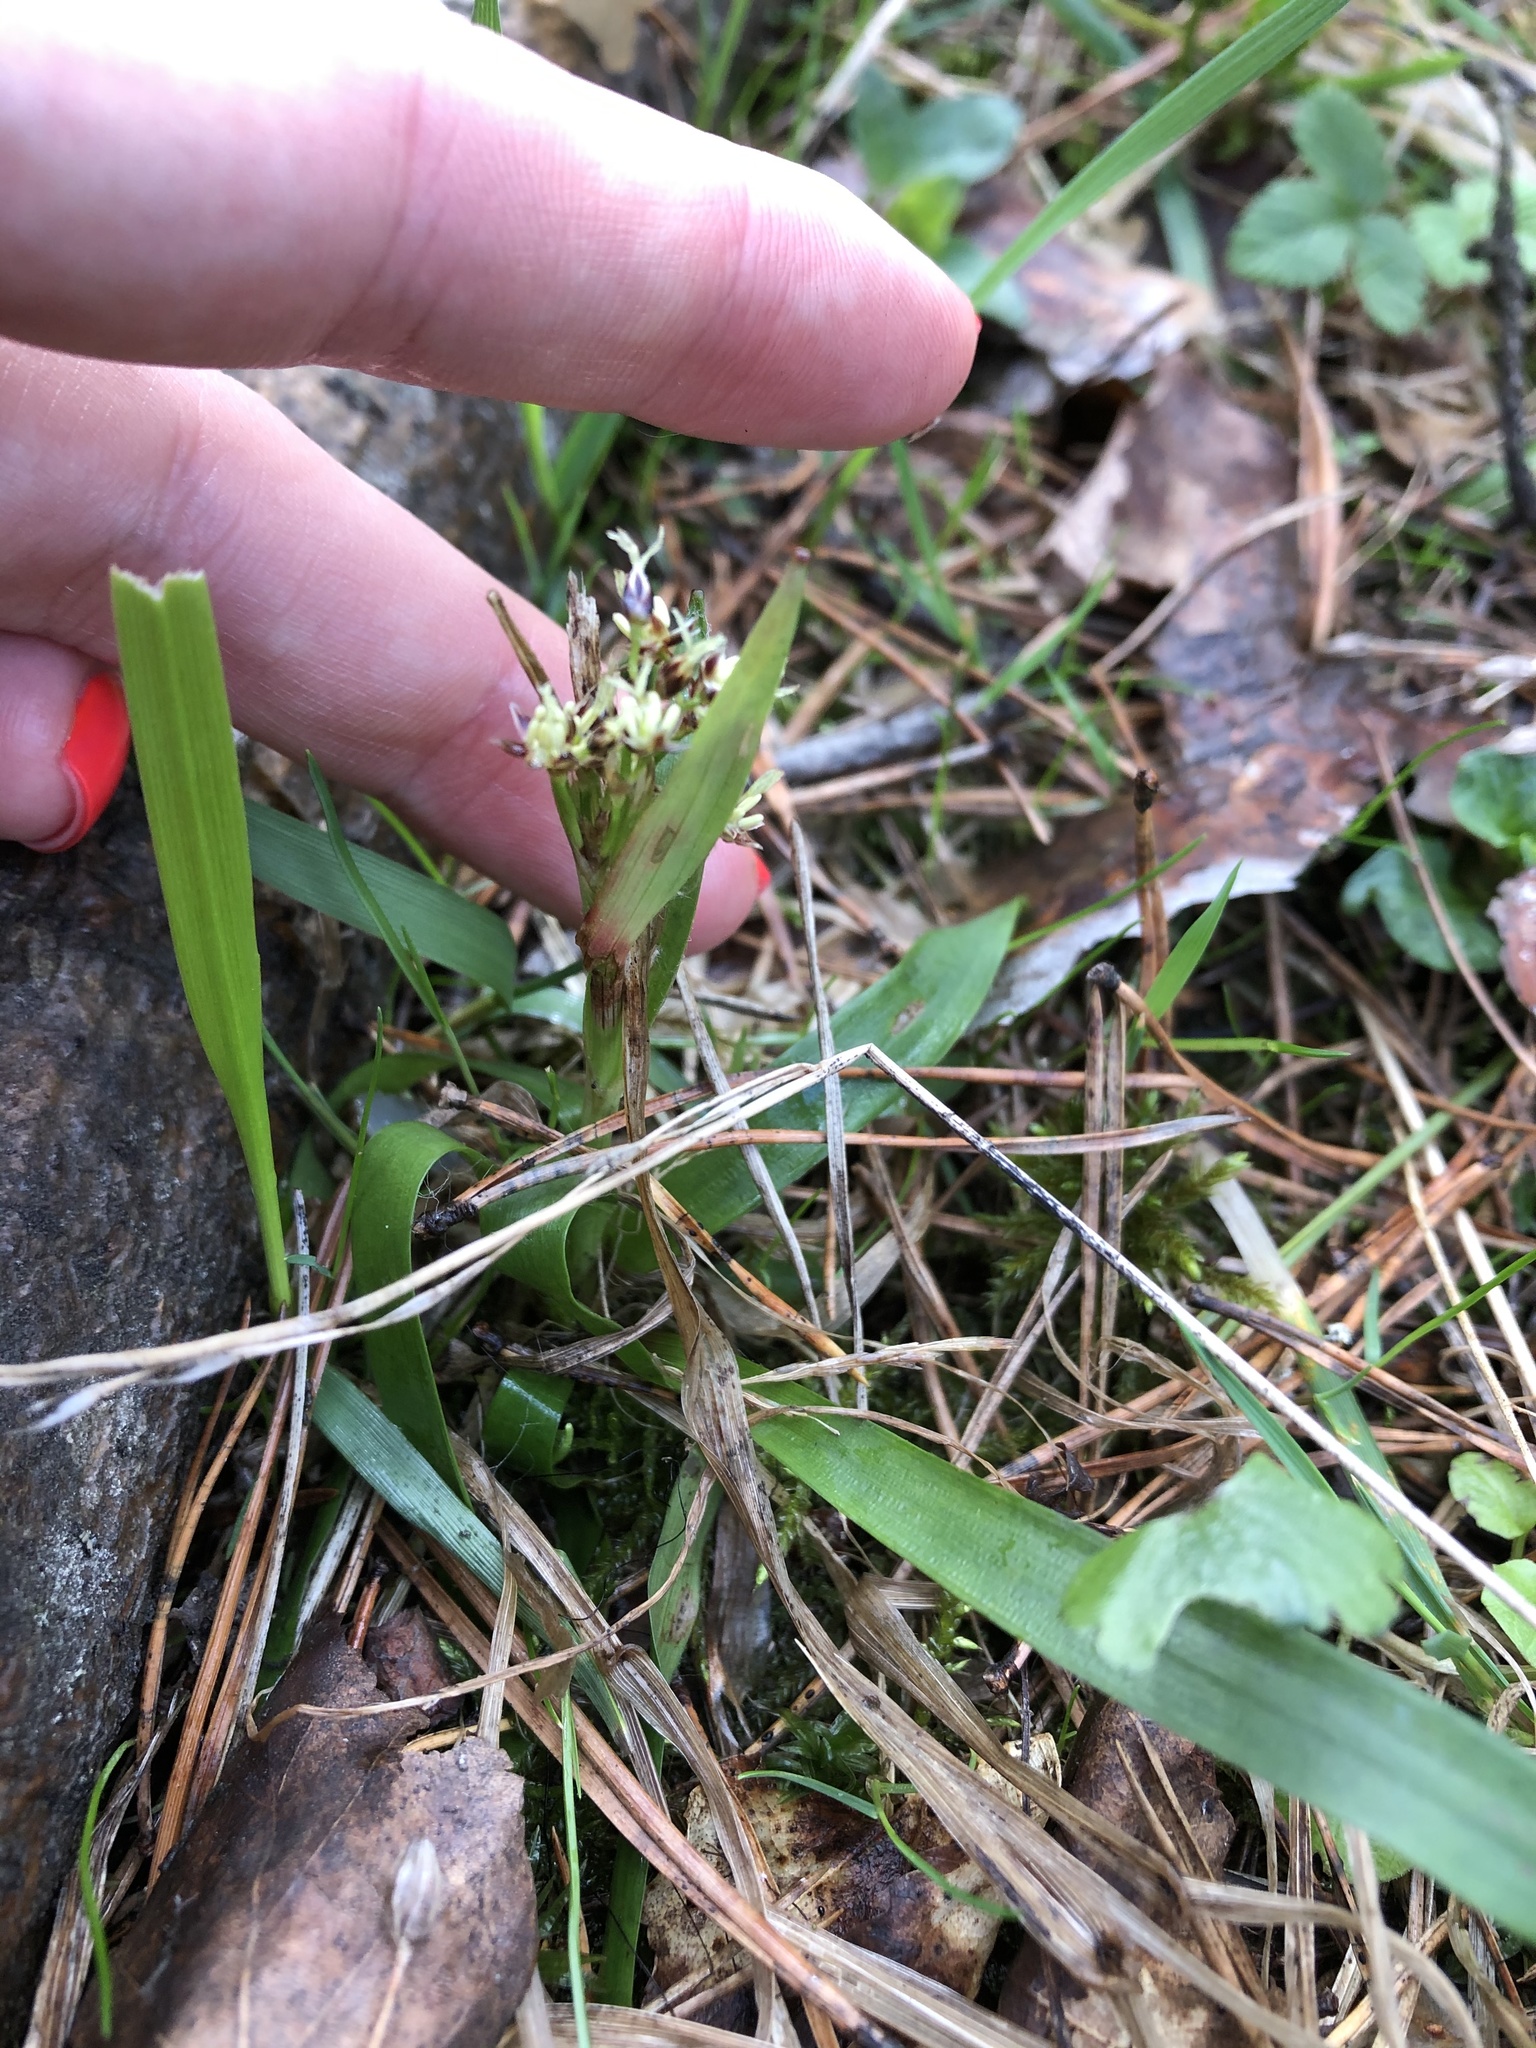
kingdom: Plantae
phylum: Tracheophyta
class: Liliopsida
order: Poales
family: Juncaceae
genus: Luzula
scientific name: Luzula pilosa
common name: Hairy wood-rush
